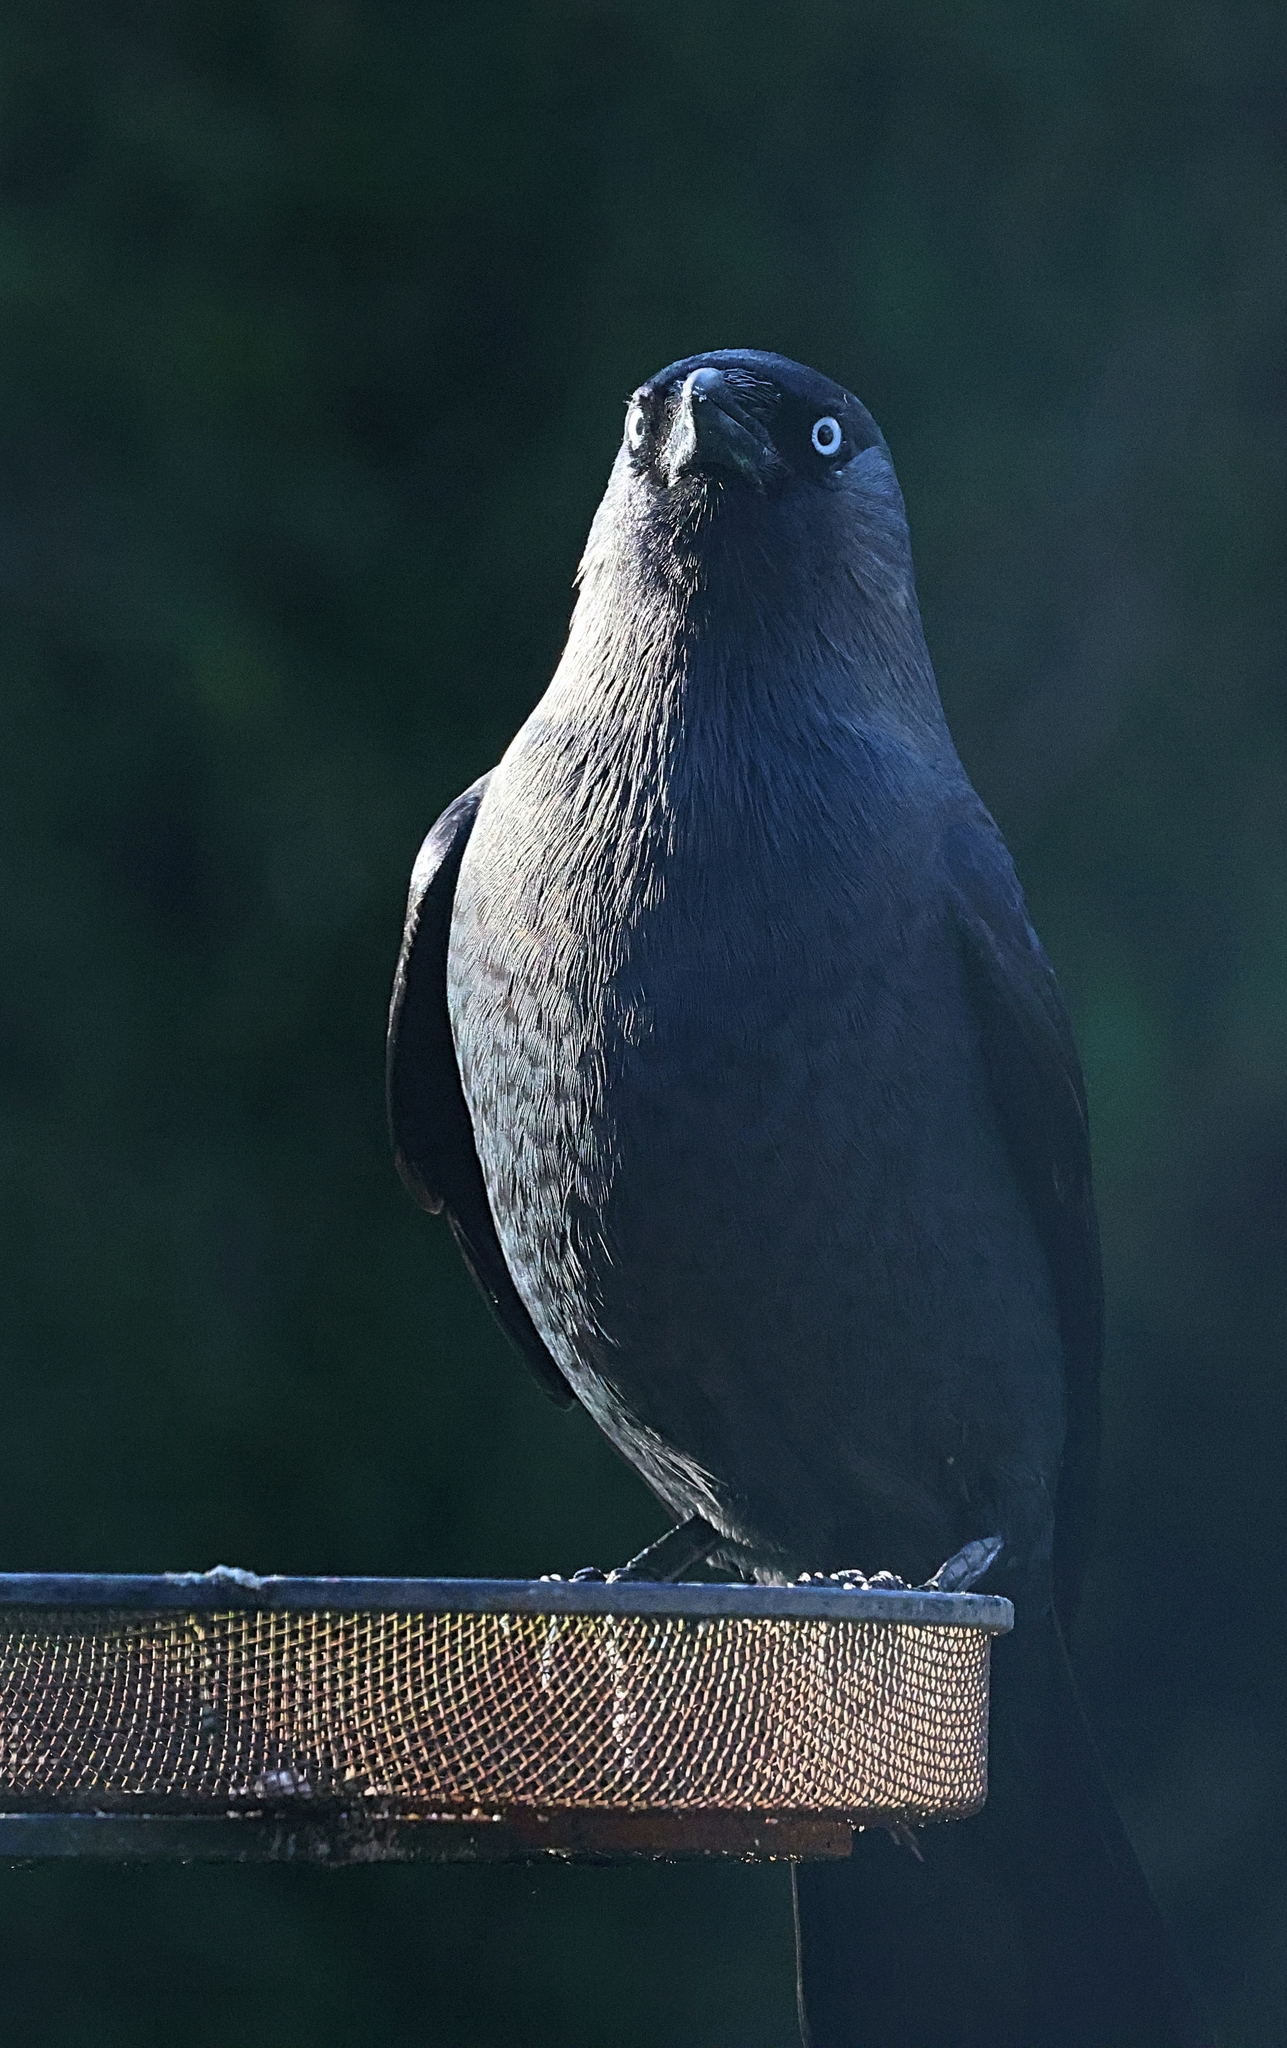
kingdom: Animalia
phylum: Chordata
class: Aves
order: Passeriformes
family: Corvidae
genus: Coloeus
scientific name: Coloeus monedula
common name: Western jackdaw
